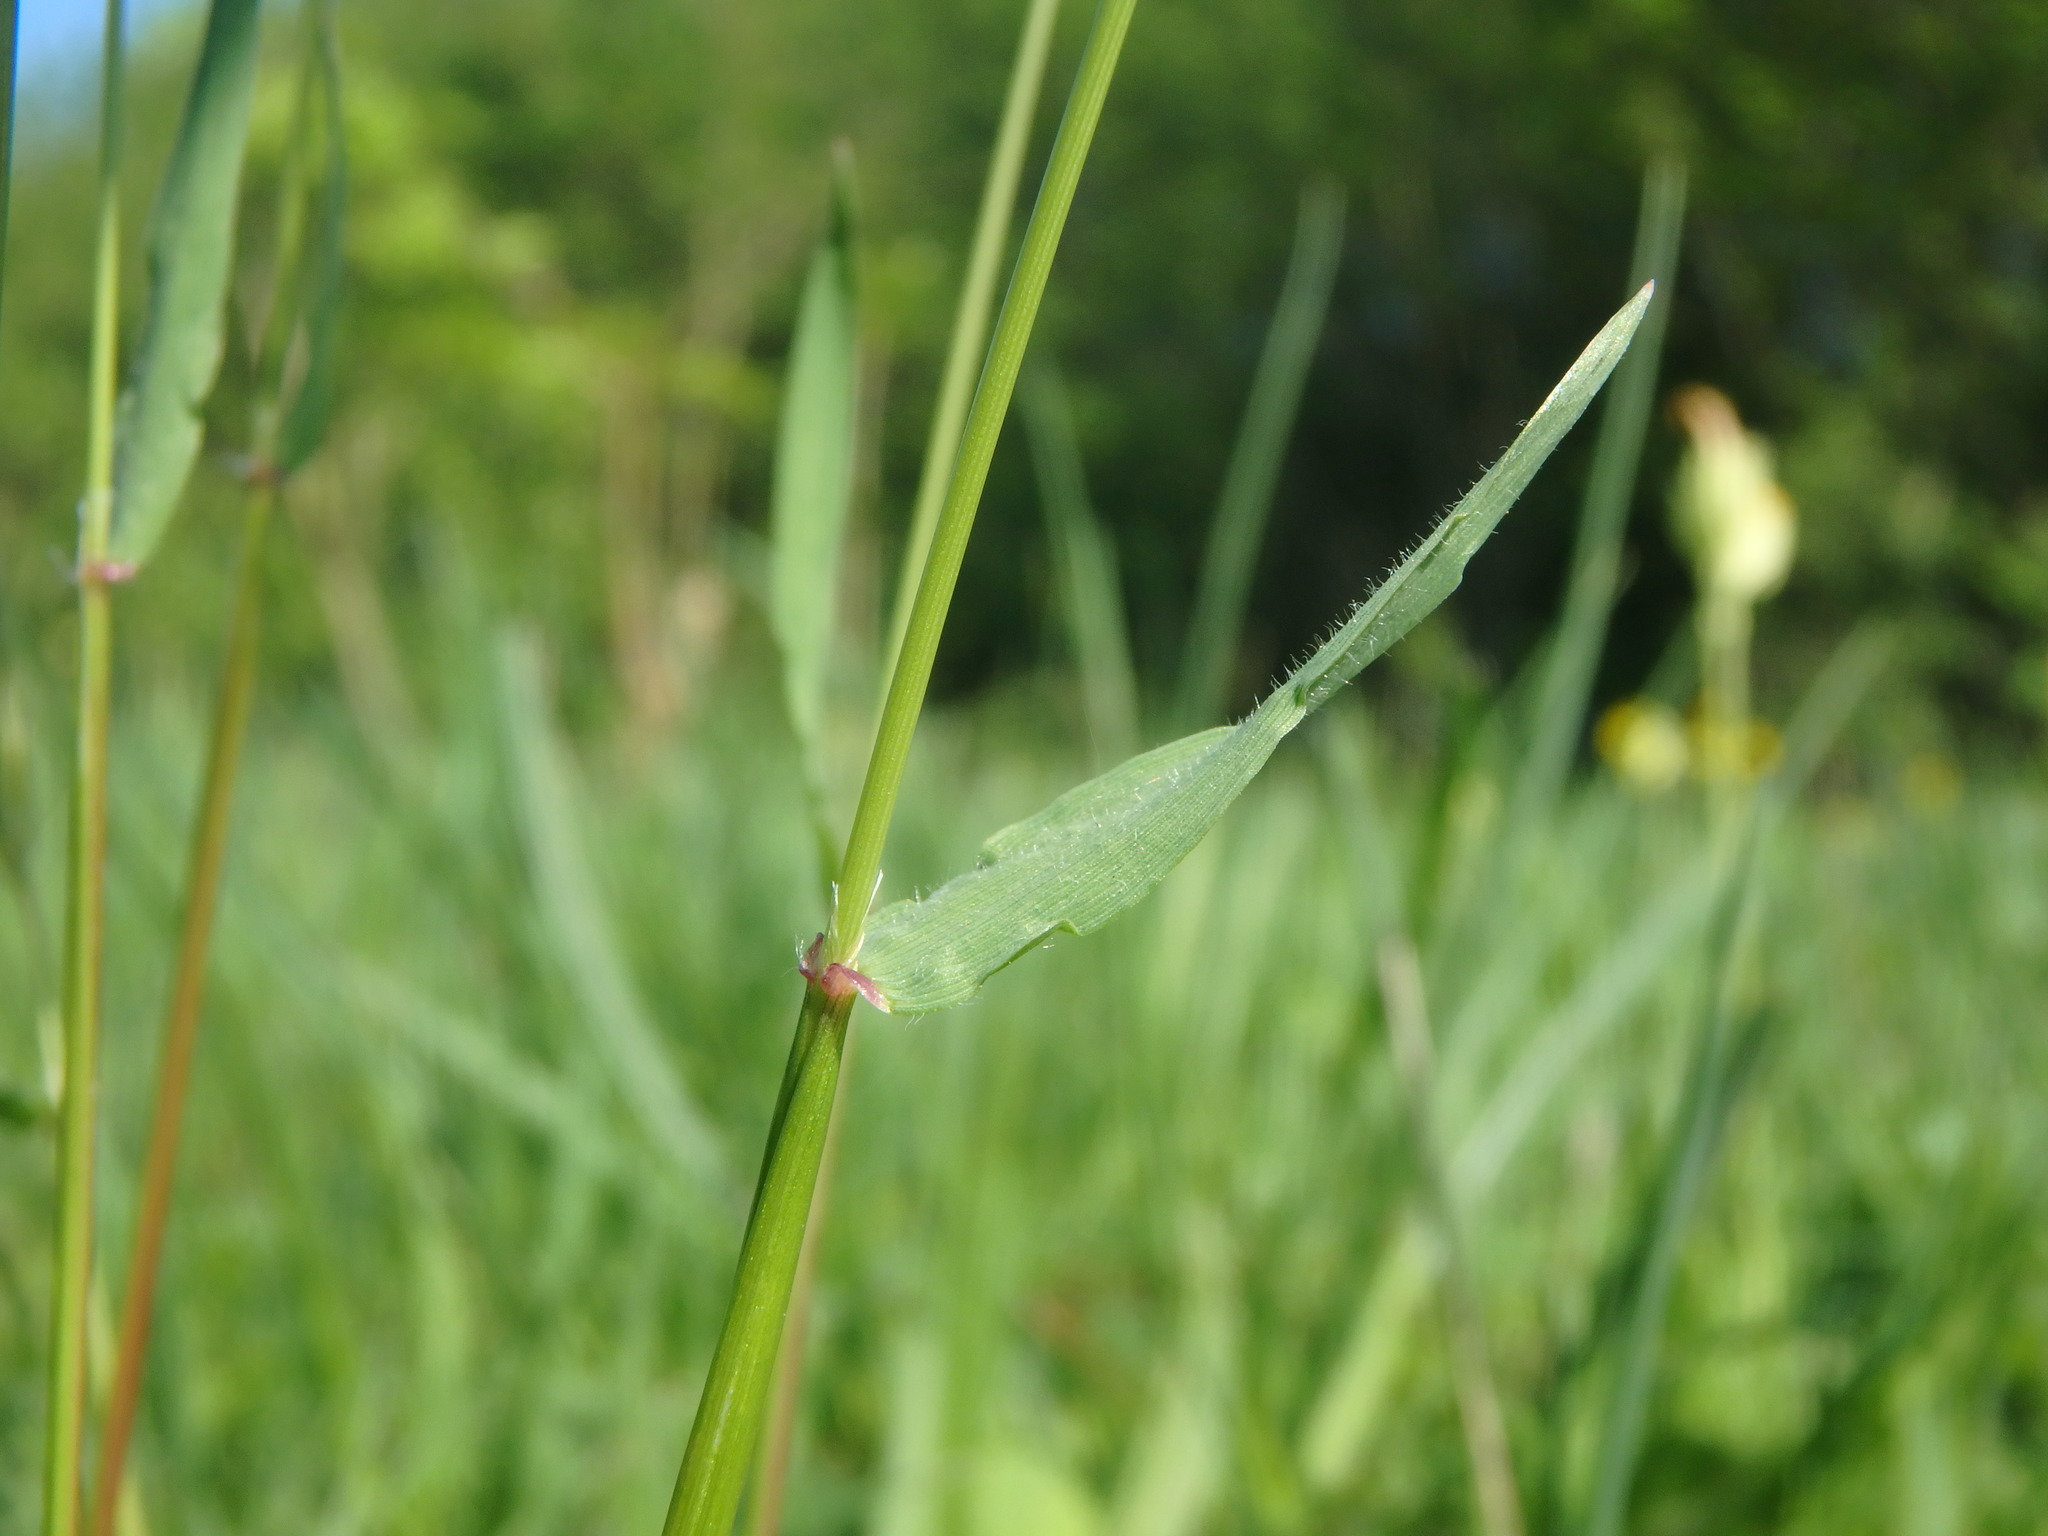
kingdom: Plantae
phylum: Tracheophyta
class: Liliopsida
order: Poales
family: Poaceae
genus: Anthoxanthum
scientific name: Anthoxanthum odoratum
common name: Sweet vernalgrass
